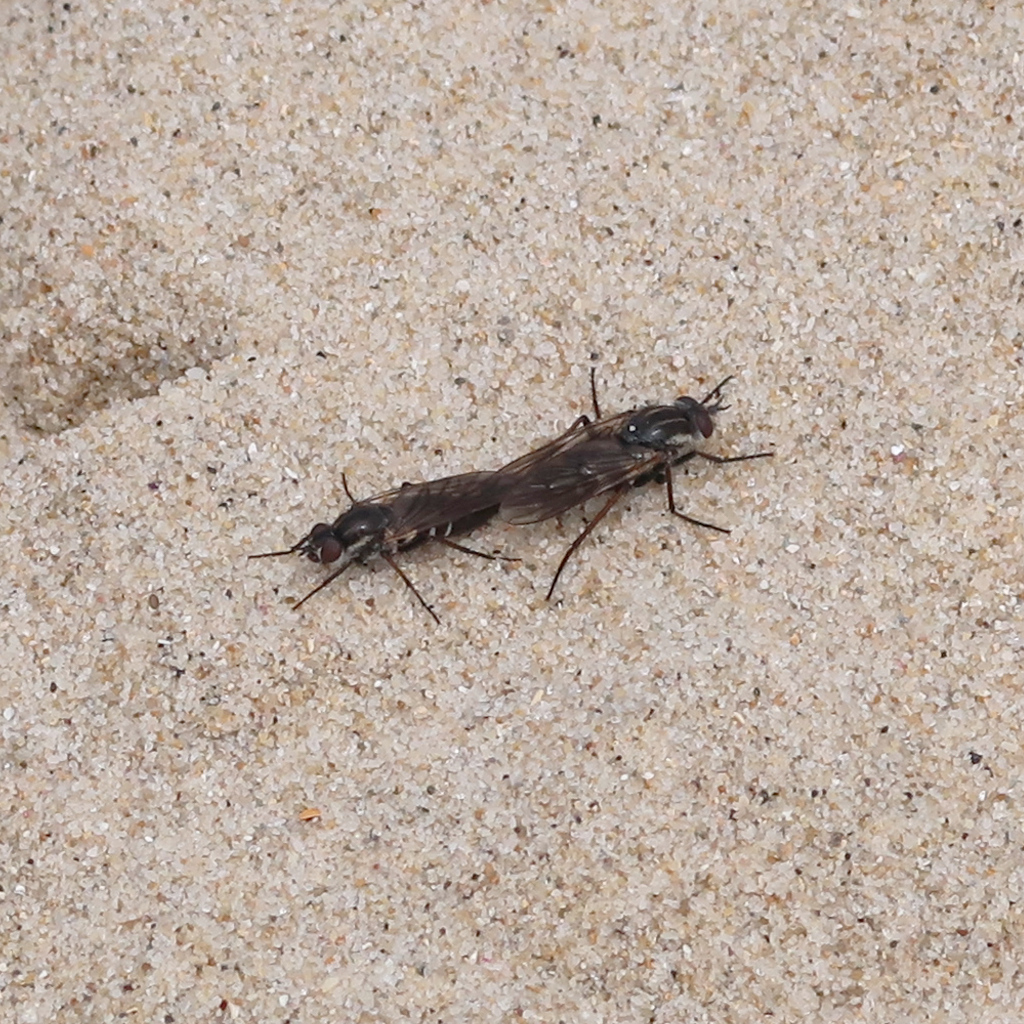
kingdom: Animalia
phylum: Arthropoda
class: Insecta
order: Diptera
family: Therevidae
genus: Anabarhynchus
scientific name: Anabarhynchus hyalipennis
